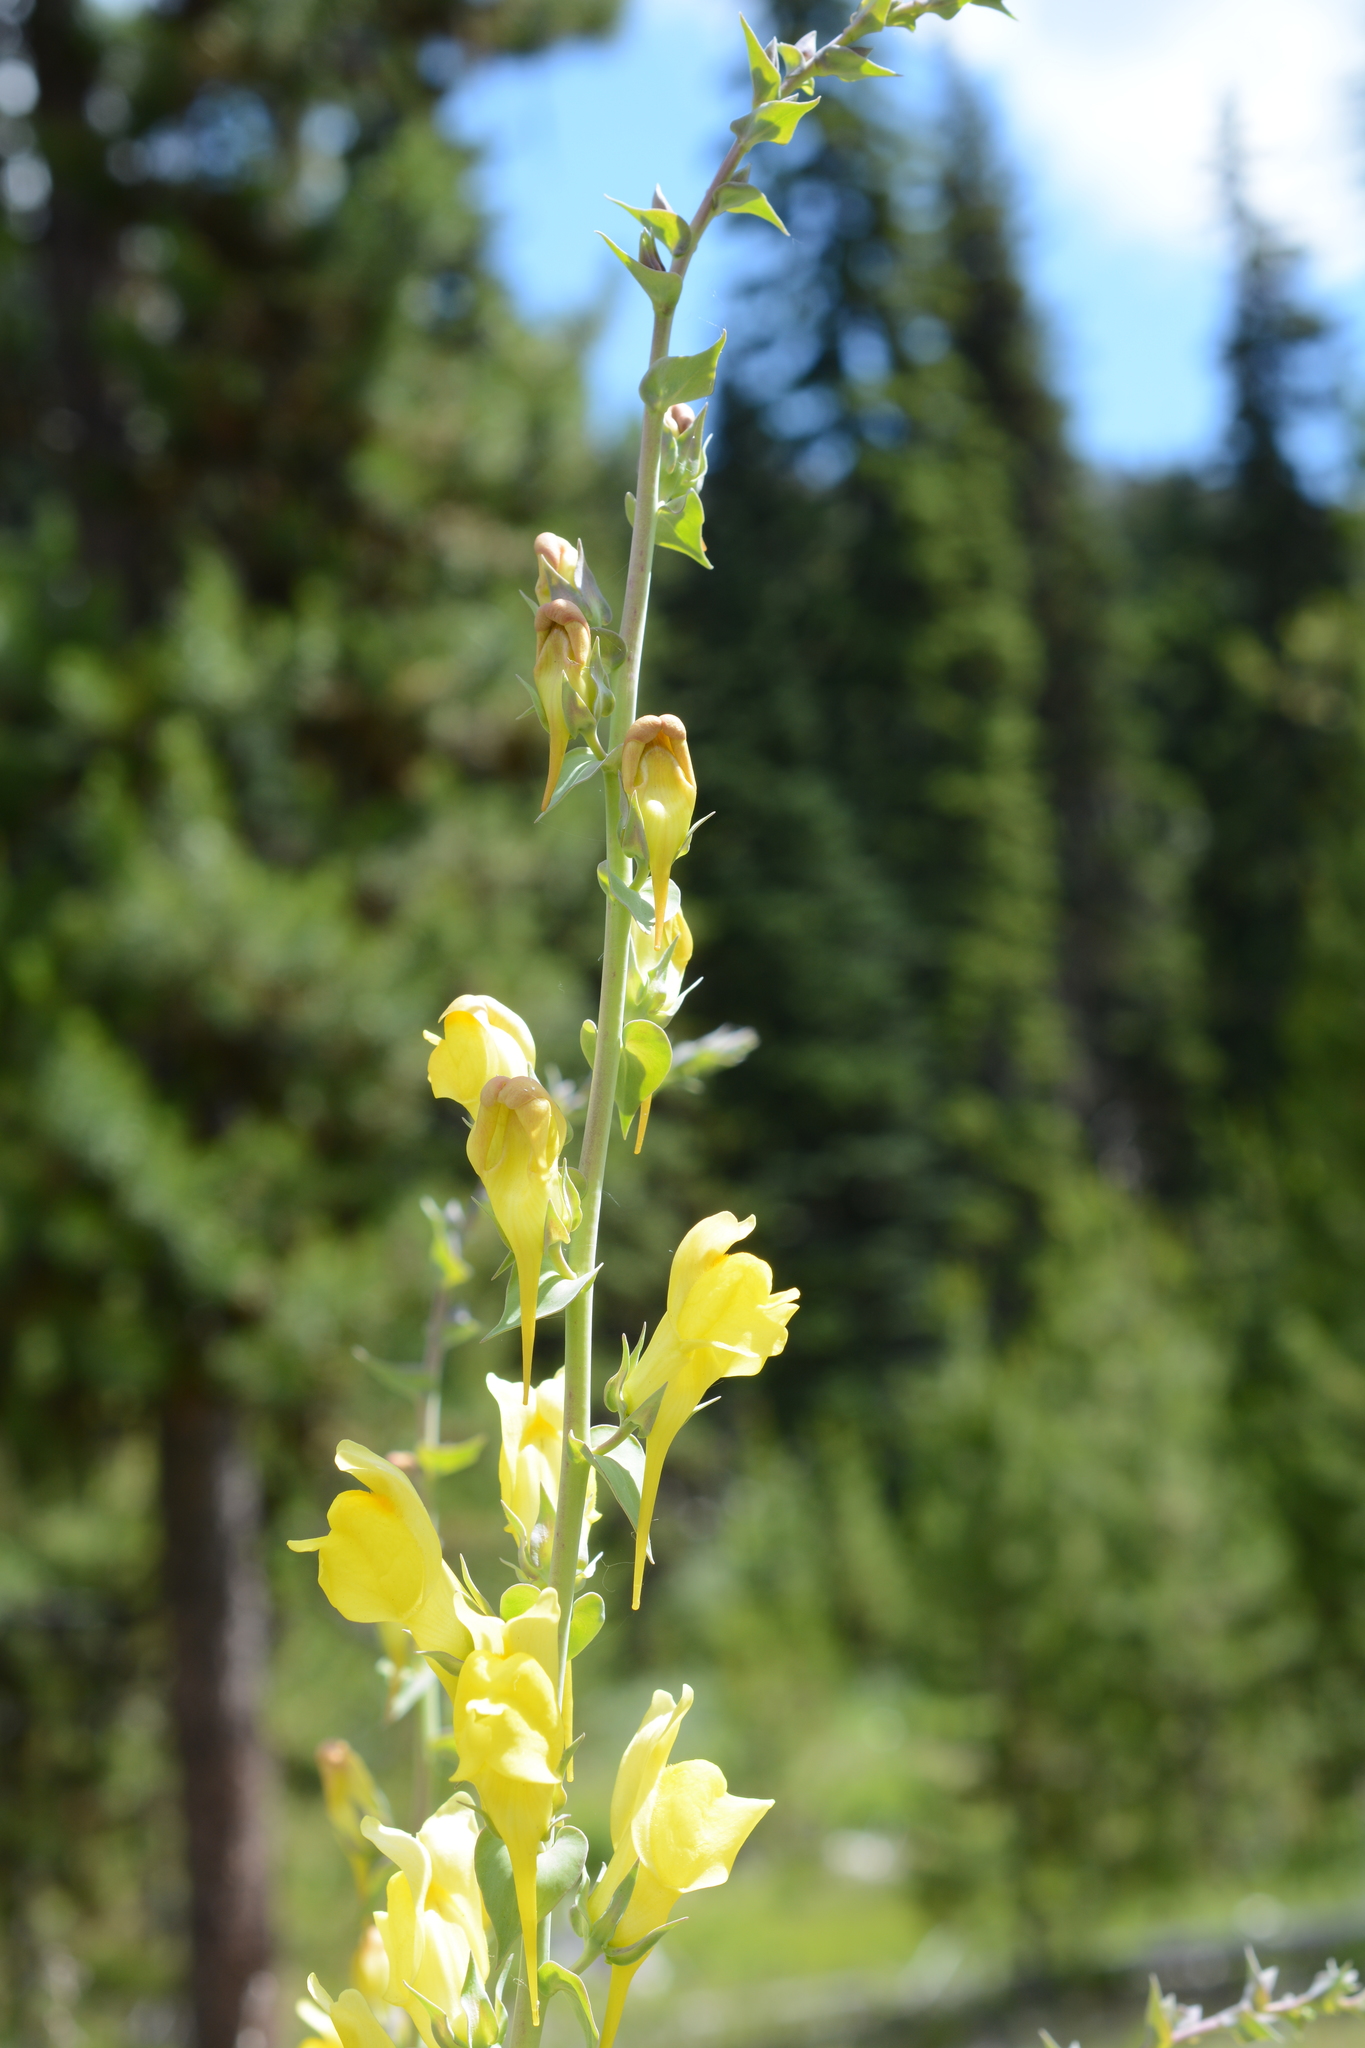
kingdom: Plantae
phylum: Tracheophyta
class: Magnoliopsida
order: Lamiales
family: Plantaginaceae
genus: Linaria
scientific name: Linaria dalmatica
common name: Dalmatian toadflax
